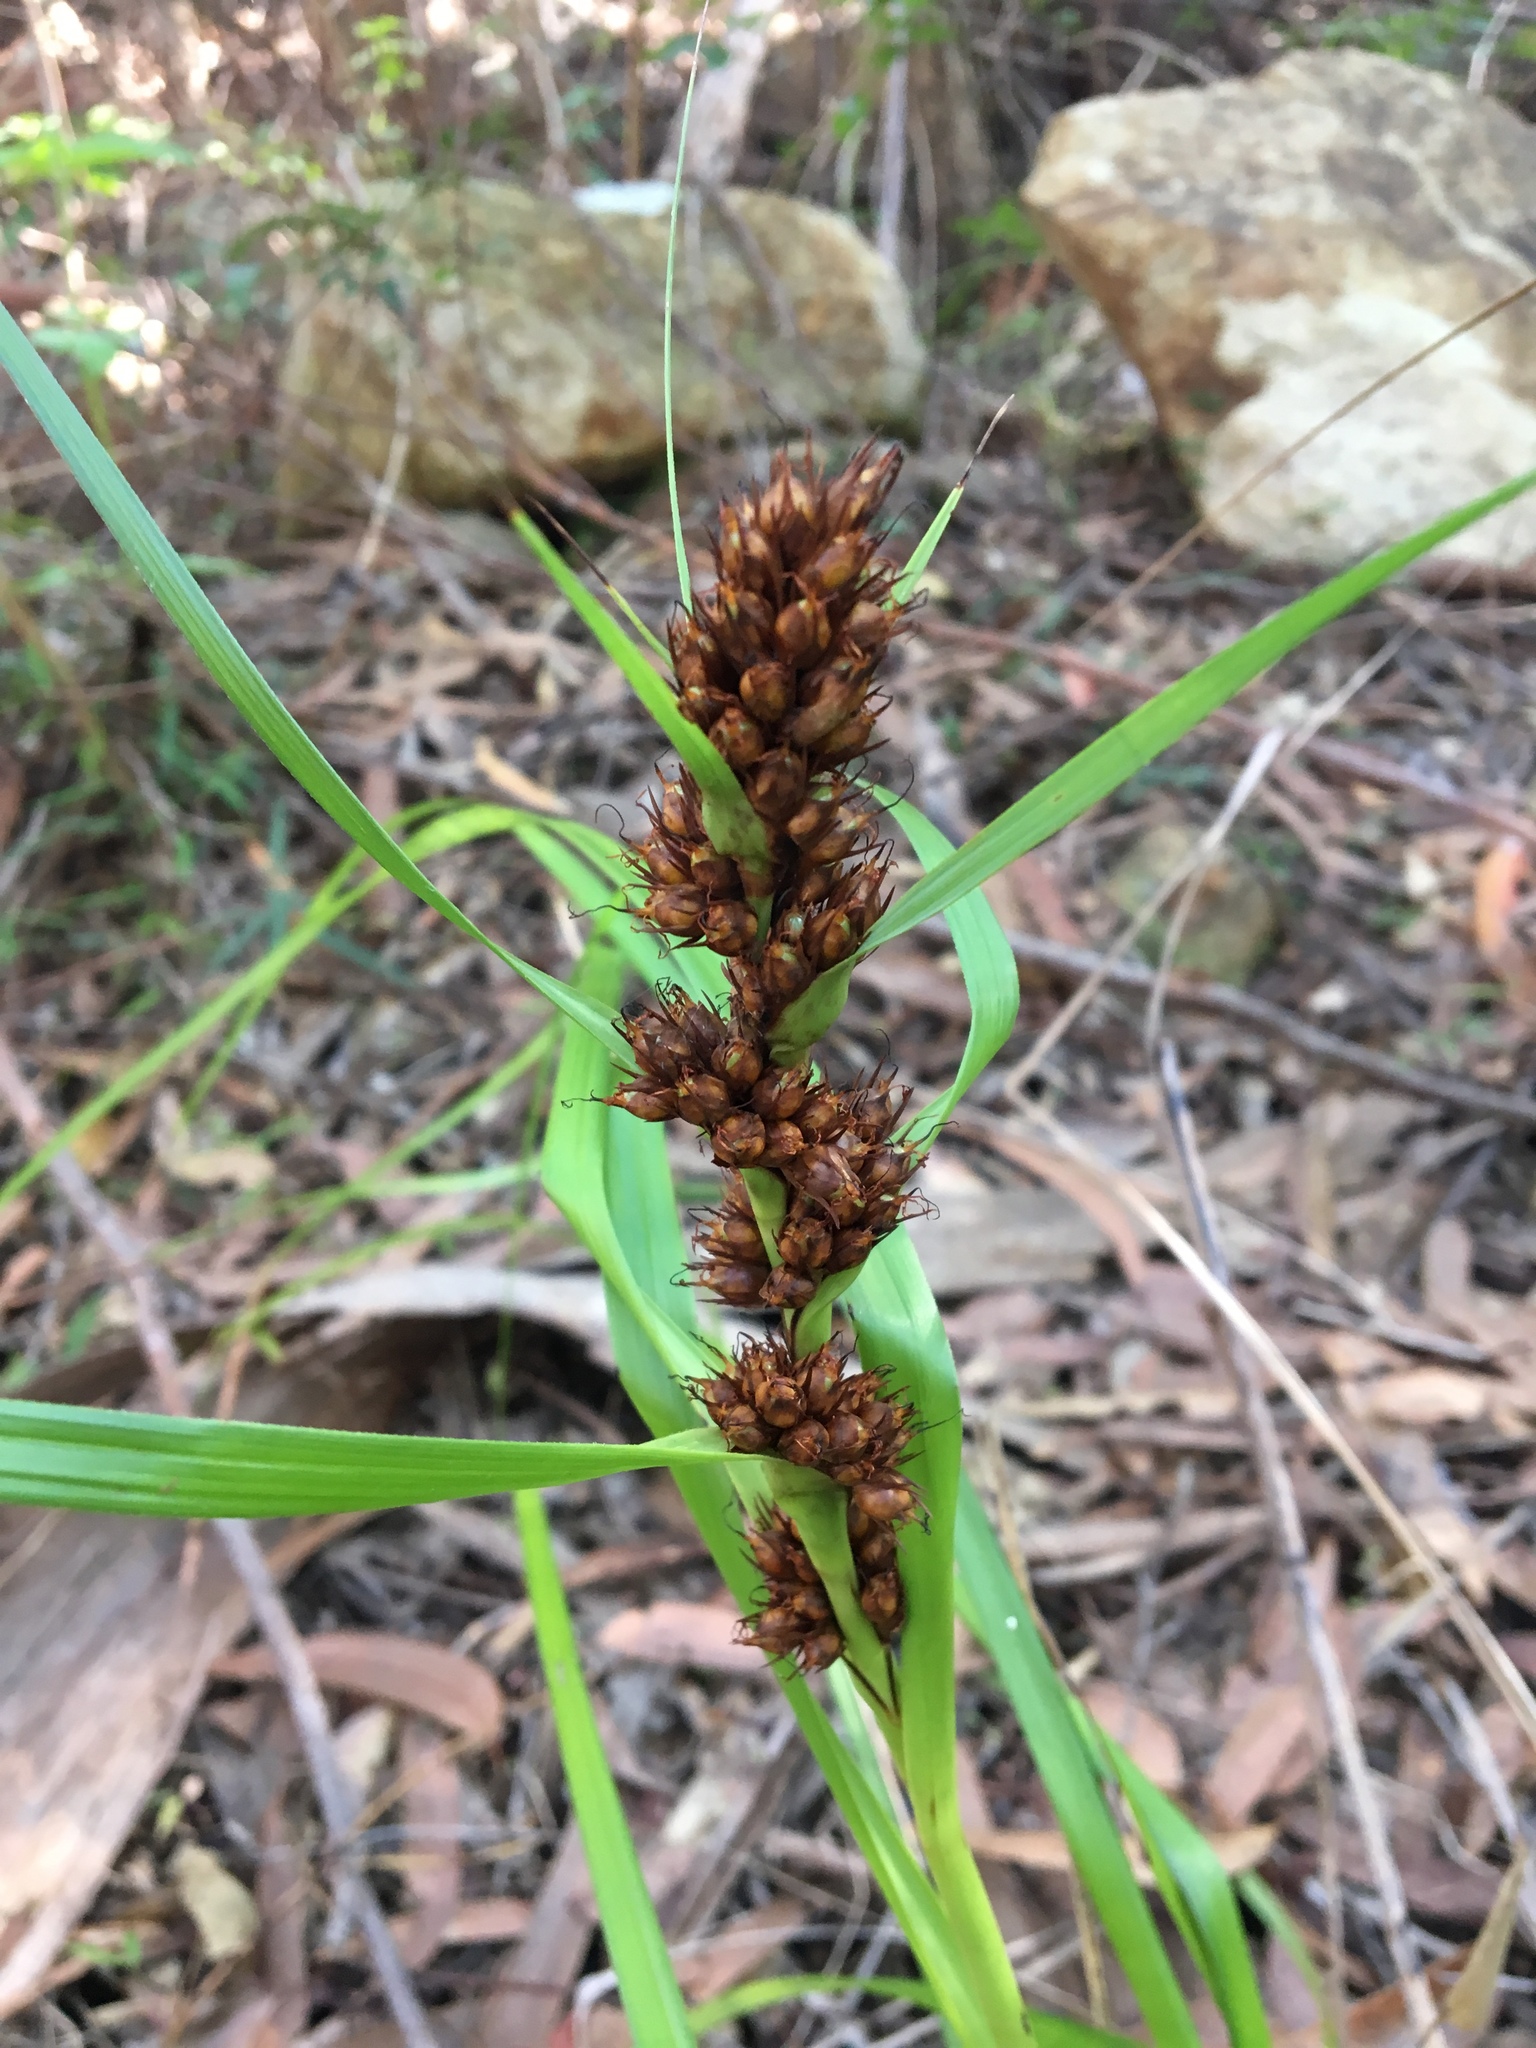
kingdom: Plantae
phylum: Tracheophyta
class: Liliopsida
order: Poales
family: Cyperaceae
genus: Gahnia
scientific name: Gahnia aspera
